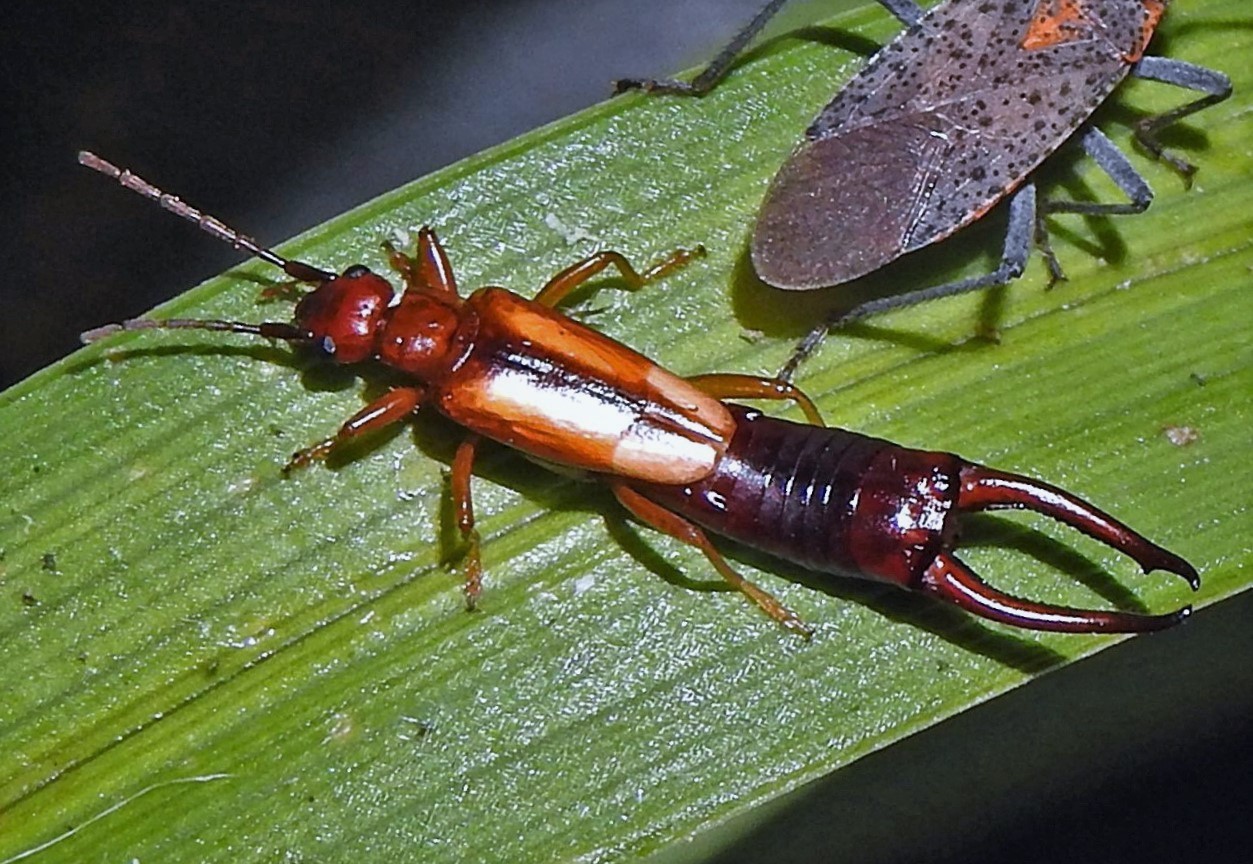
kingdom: Animalia
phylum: Arthropoda
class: Insecta
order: Dermaptera
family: Forficulidae
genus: Doru
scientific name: Doru
